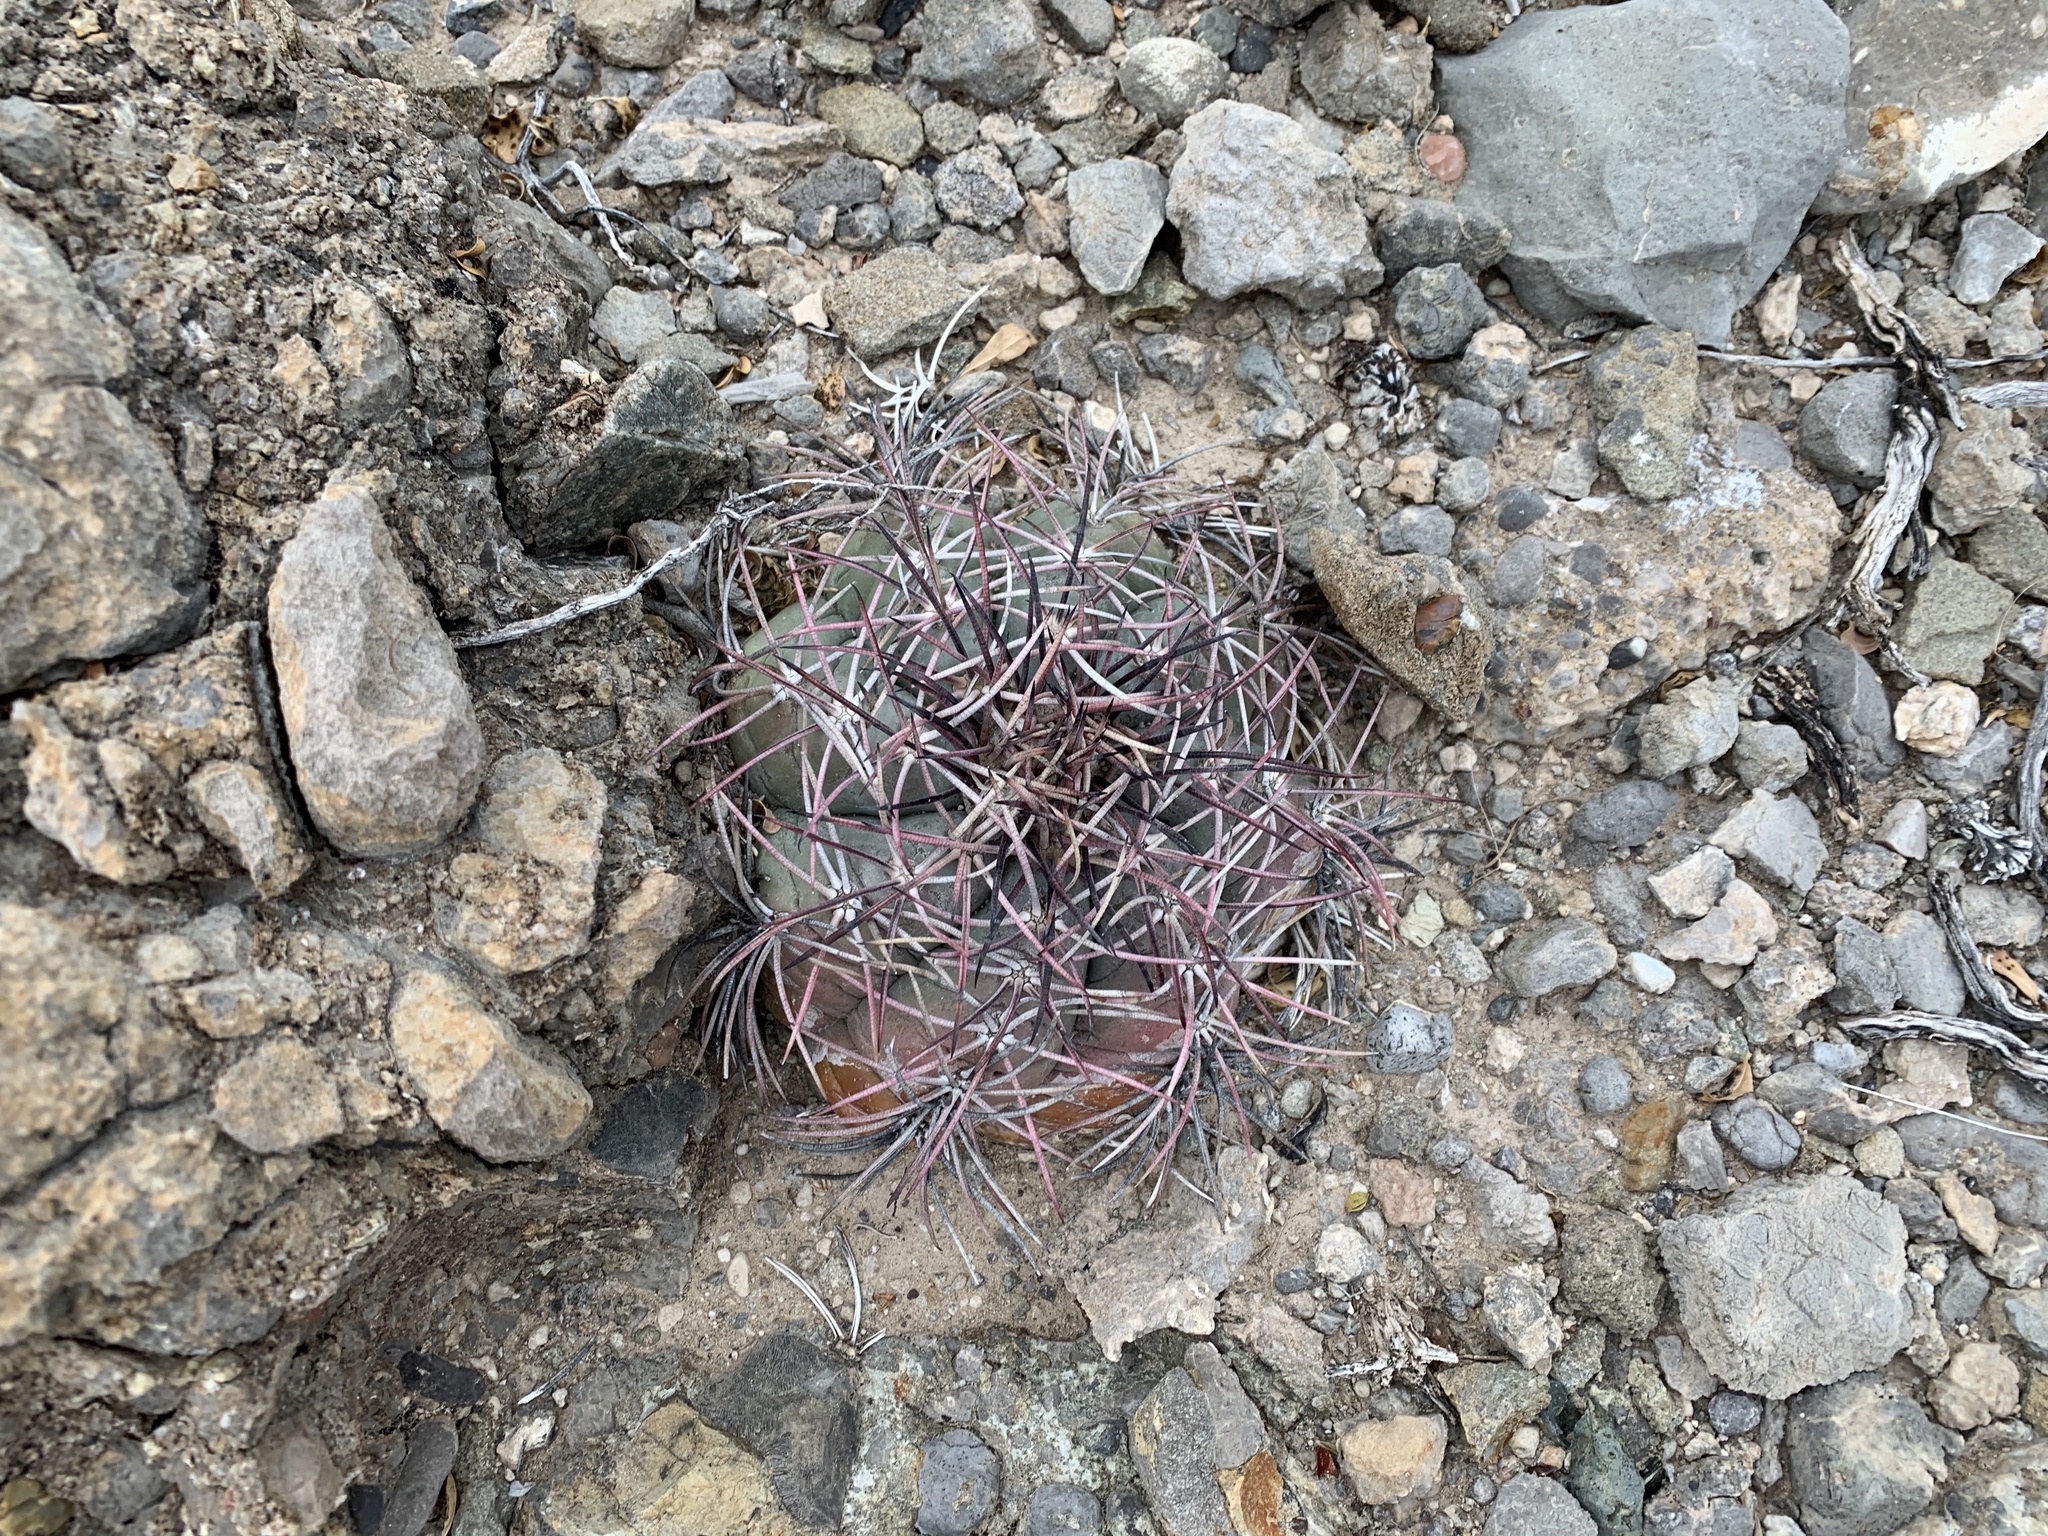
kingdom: Plantae
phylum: Tracheophyta
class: Magnoliopsida
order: Caryophyllales
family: Cactaceae
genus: Echinocactus
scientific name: Echinocactus horizonthalonius
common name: Devilshead
